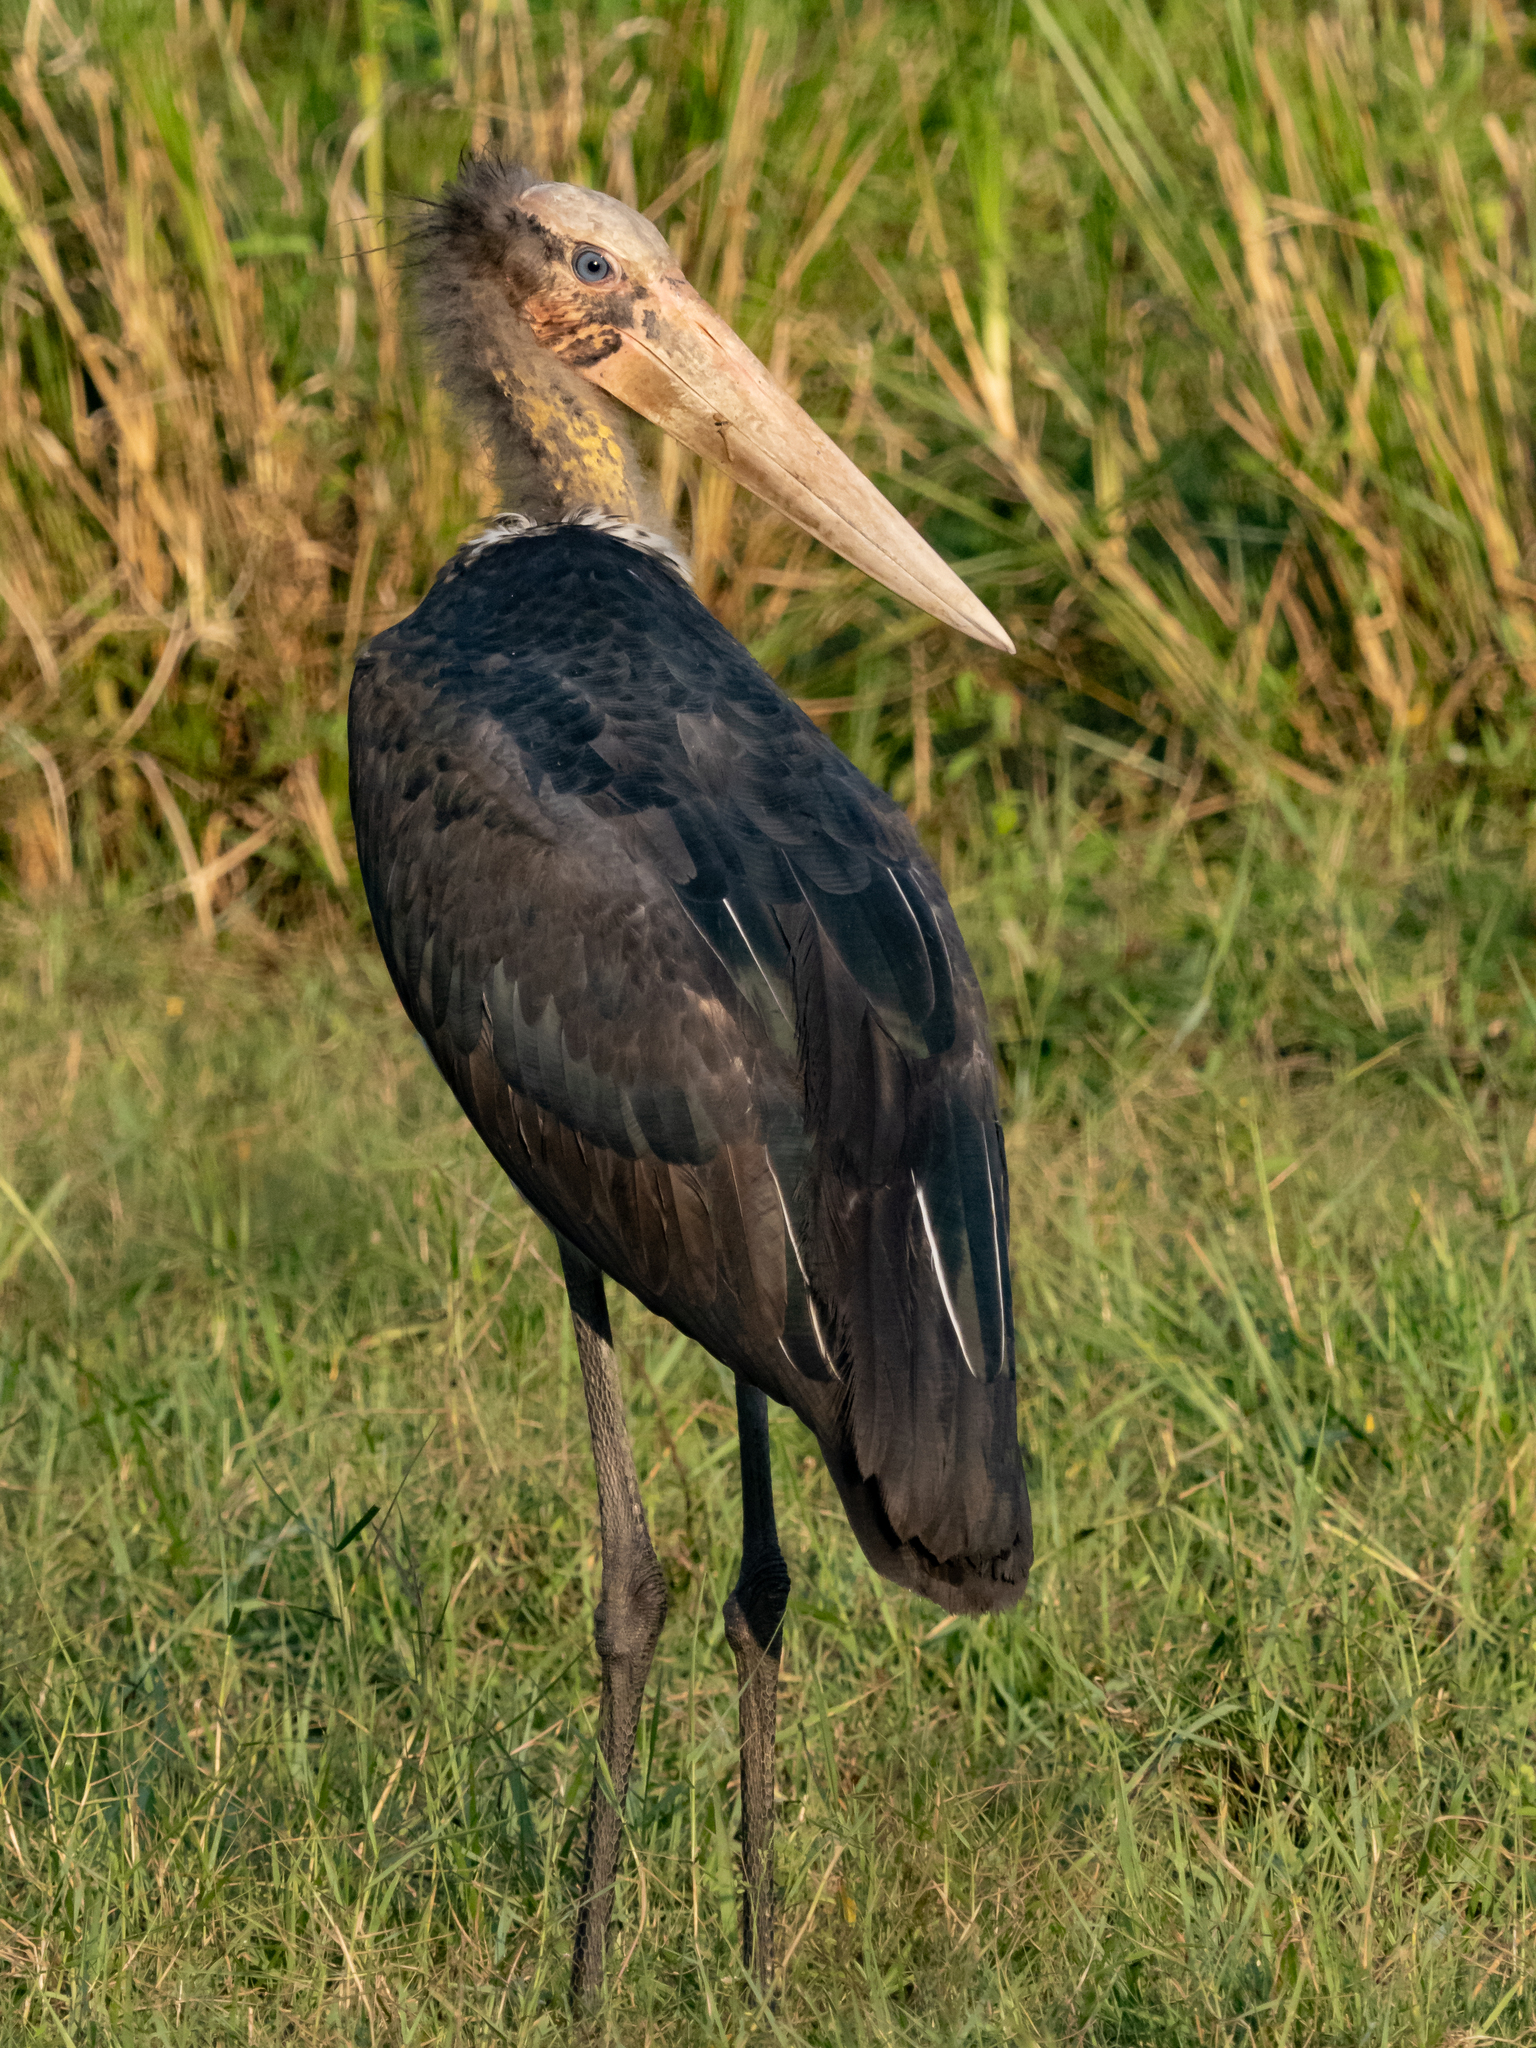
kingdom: Animalia
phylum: Chordata
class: Aves
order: Ciconiiformes
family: Ciconiidae
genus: Leptoptilos
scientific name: Leptoptilos javanicus
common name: Lesser adjutant
